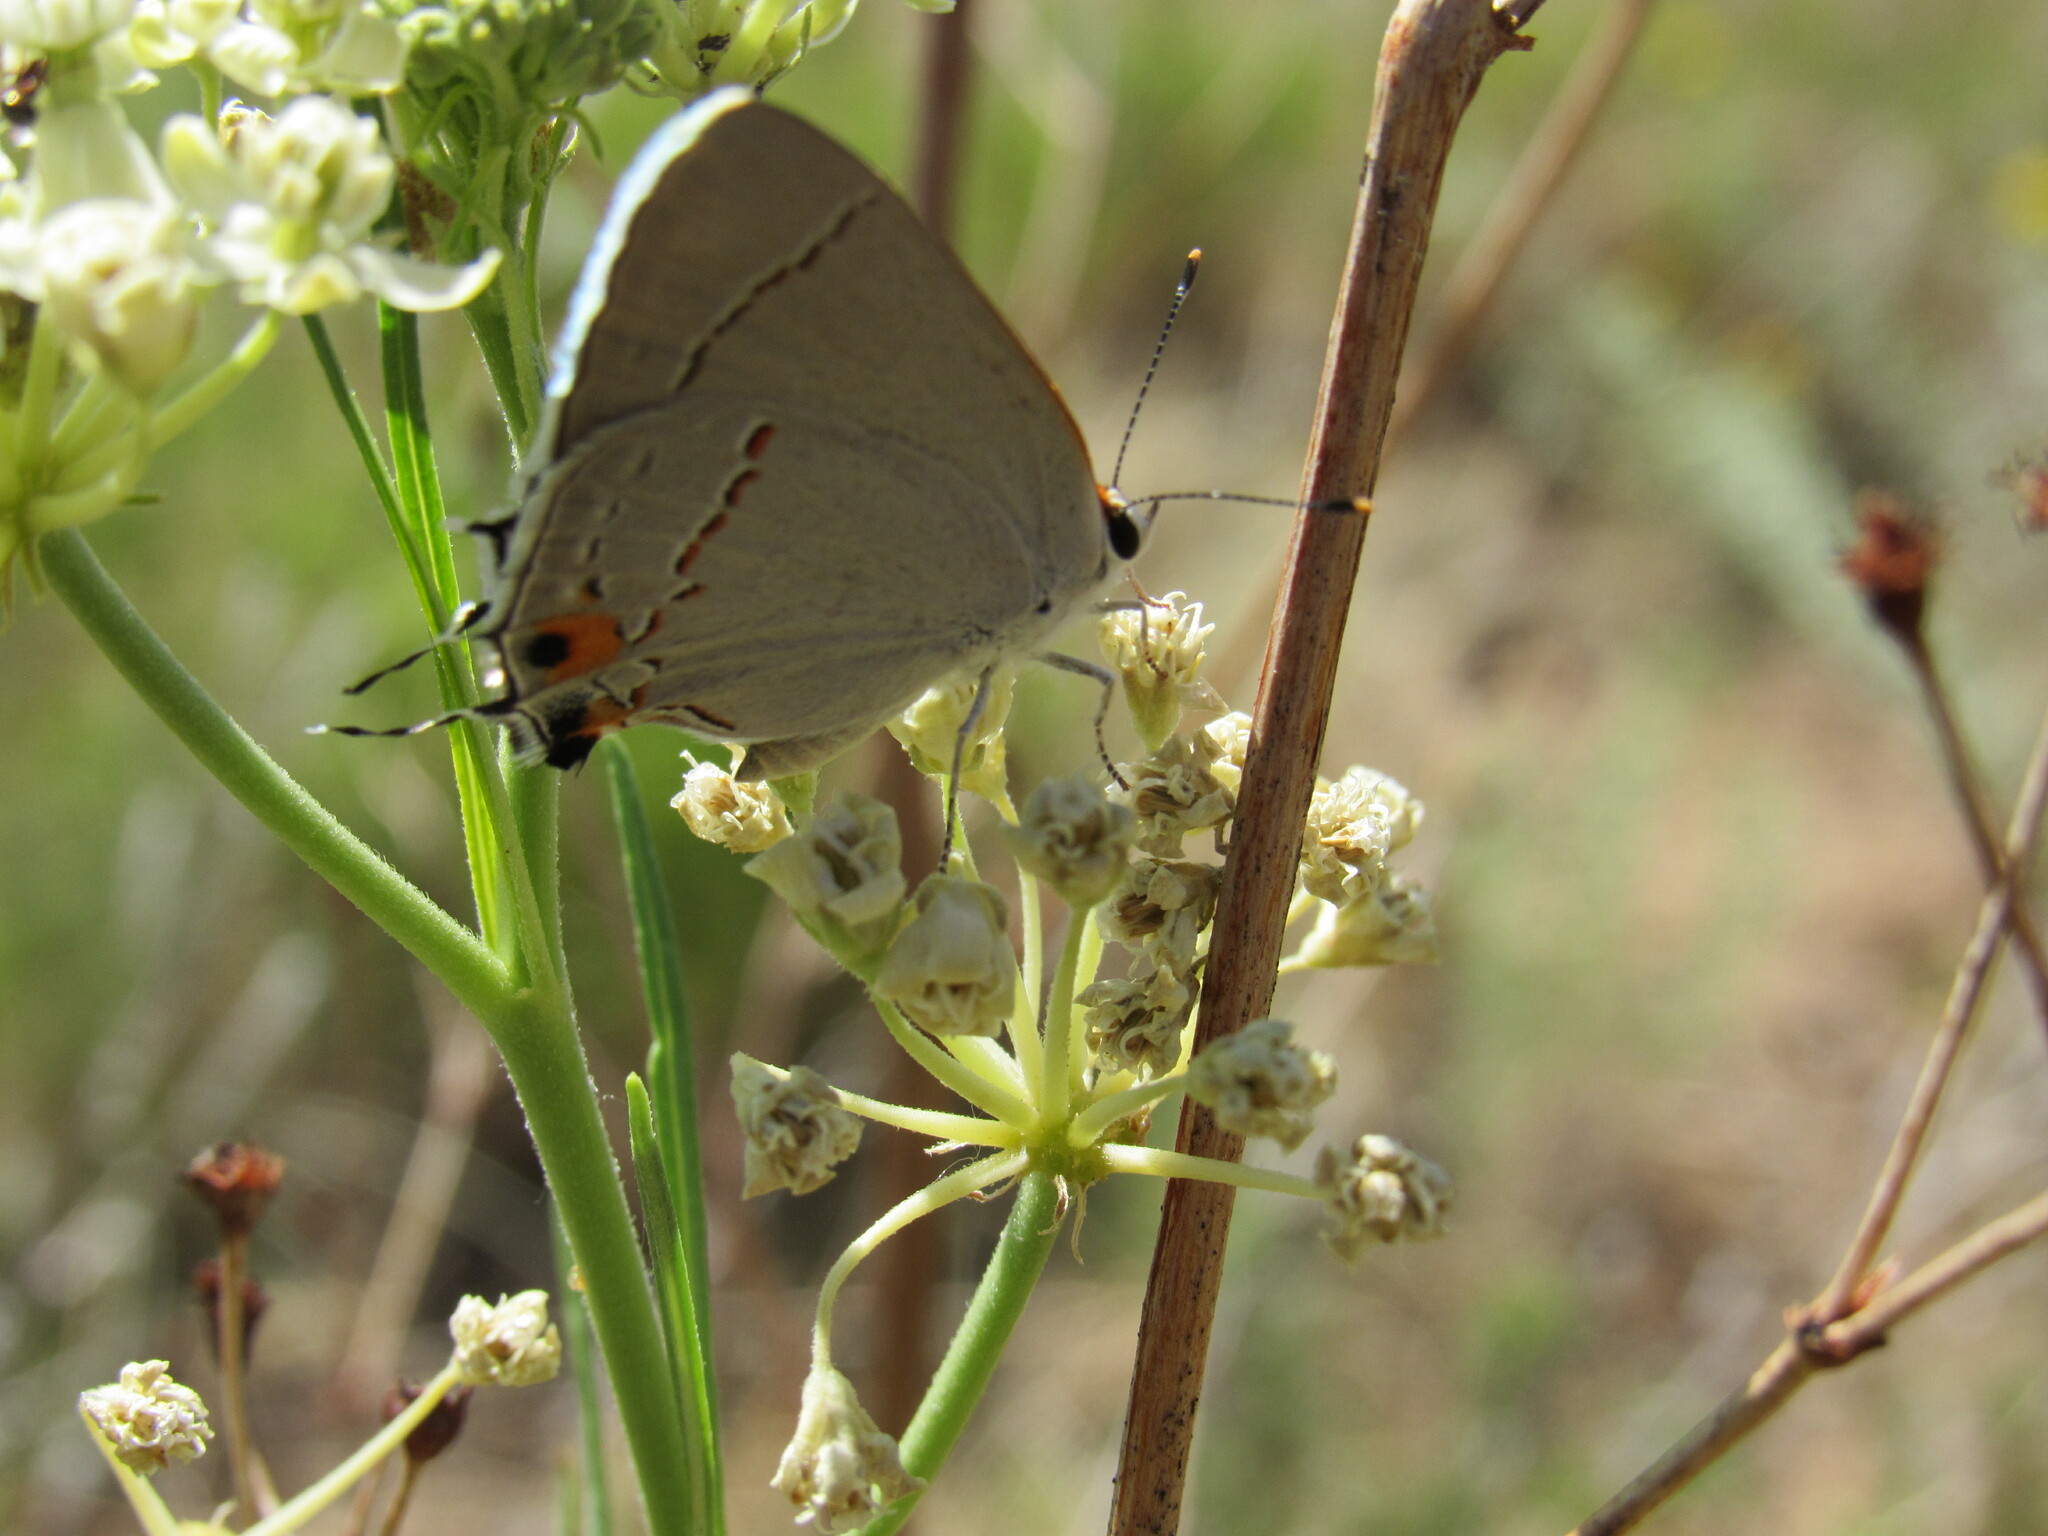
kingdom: Animalia
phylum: Arthropoda
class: Insecta
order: Lepidoptera
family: Lycaenidae
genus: Strymon
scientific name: Strymon melinus
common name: Gray hairstreak
